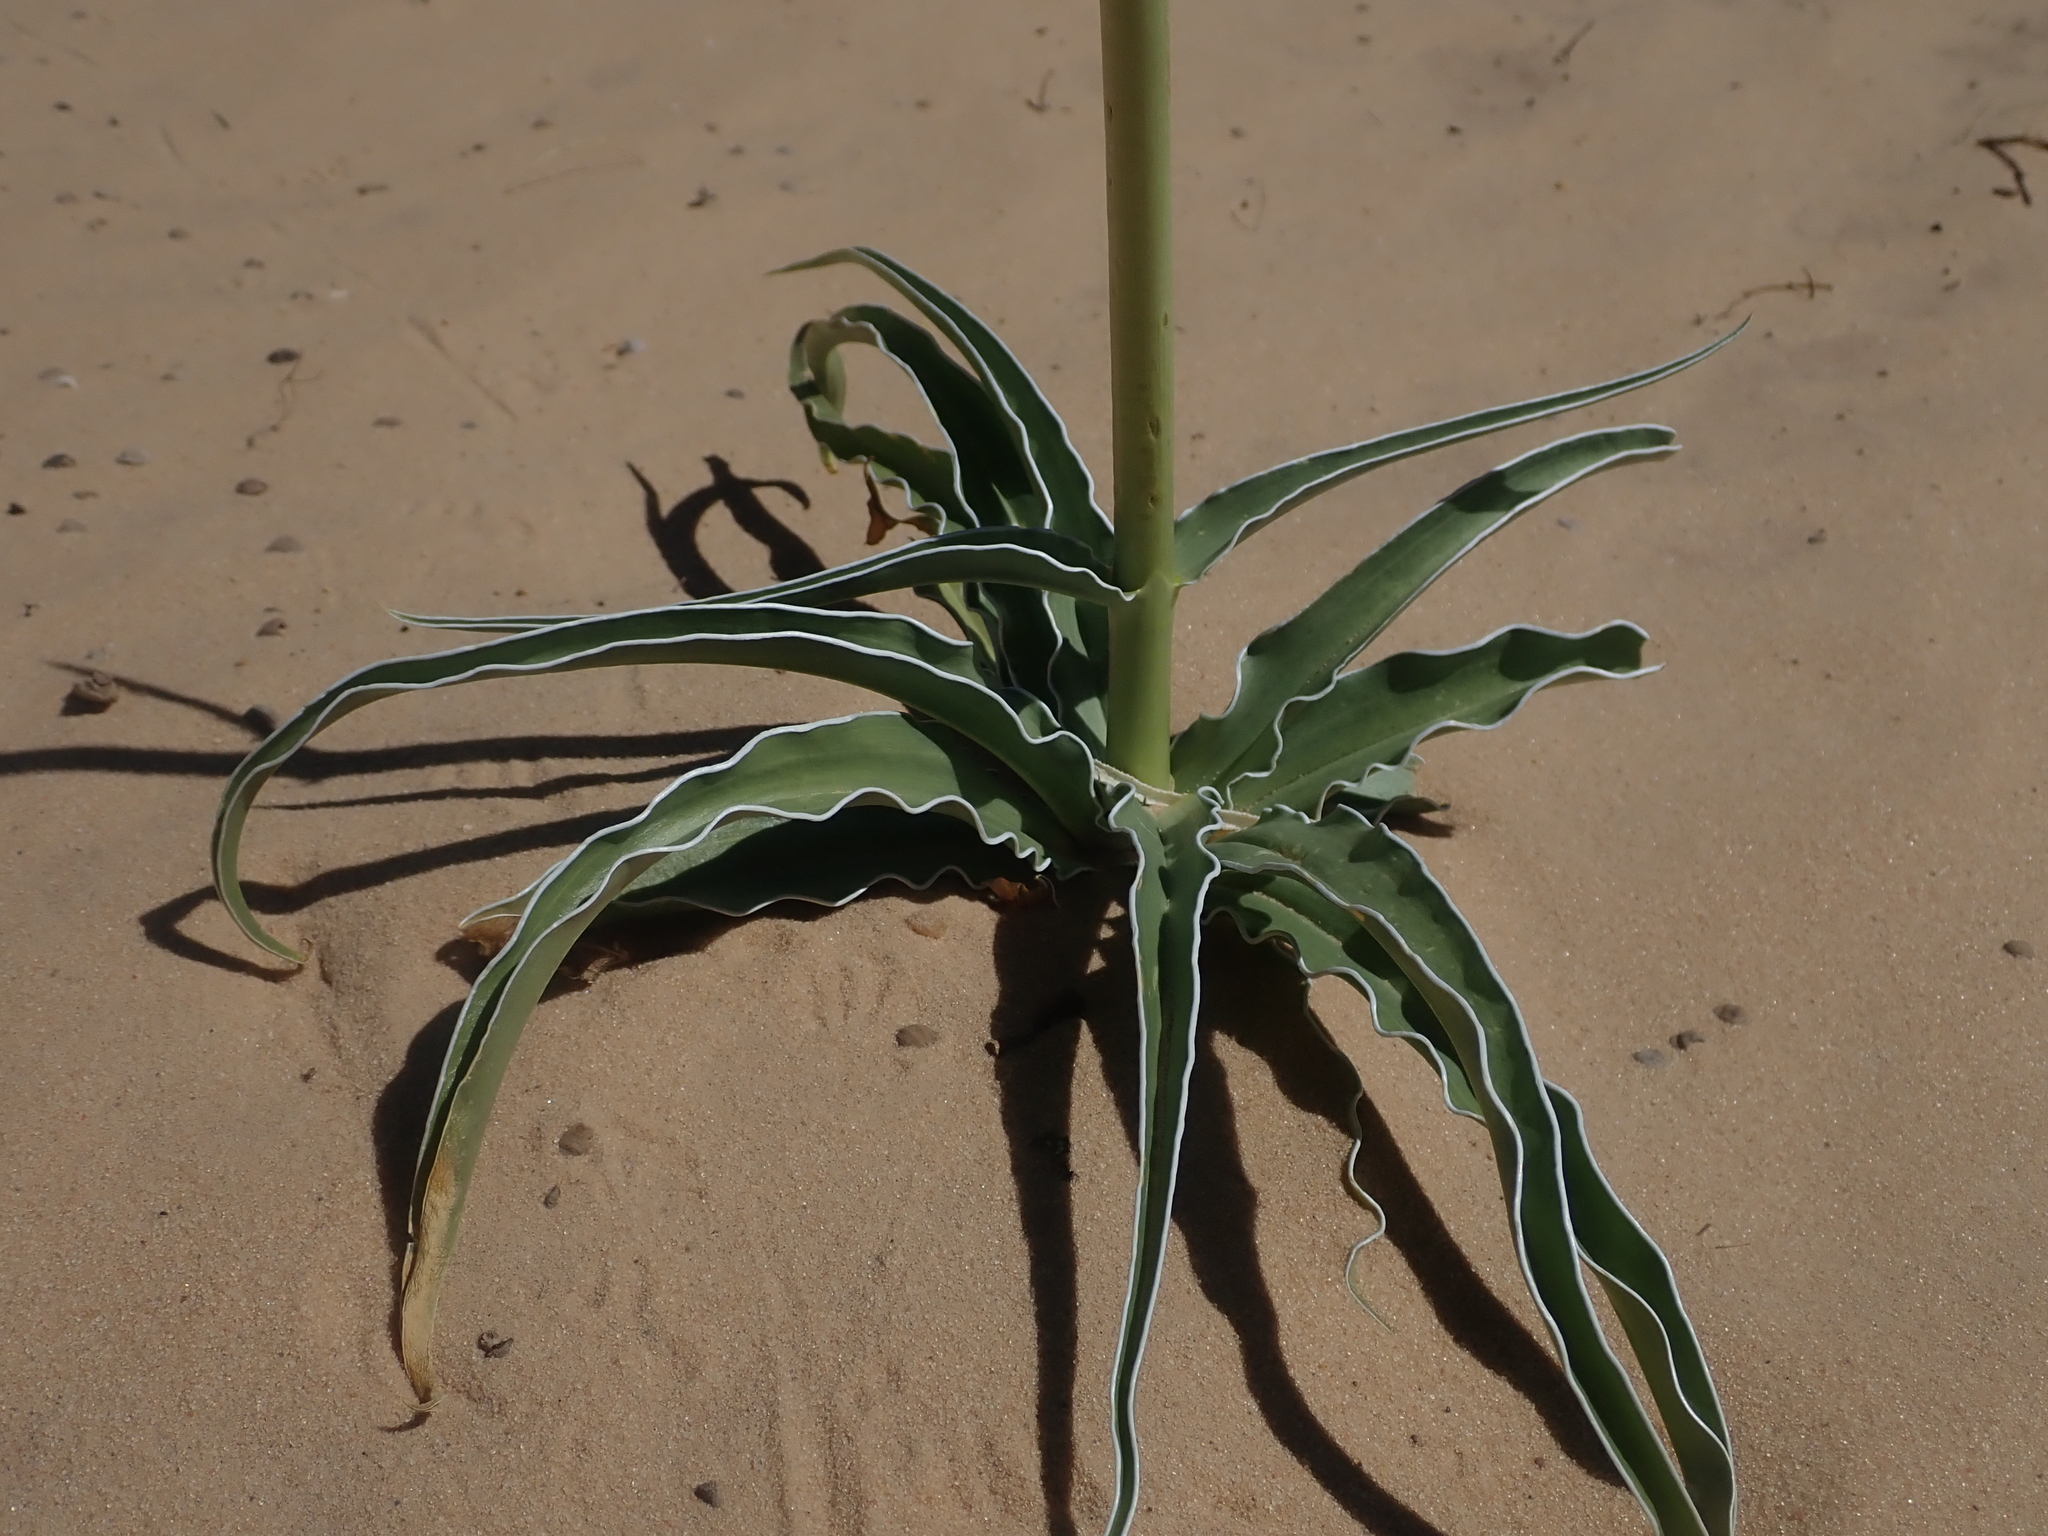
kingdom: Plantae
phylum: Tracheophyta
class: Magnoliopsida
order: Gentianales
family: Gentianaceae
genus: Frasera
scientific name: Frasera paniculata
